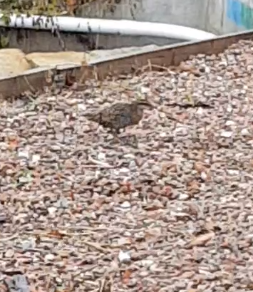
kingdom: Animalia
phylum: Chordata
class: Aves
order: Gruiformes
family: Rallidae
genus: Gallirallus
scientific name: Gallirallus philippensis
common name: Buff-banded rail
